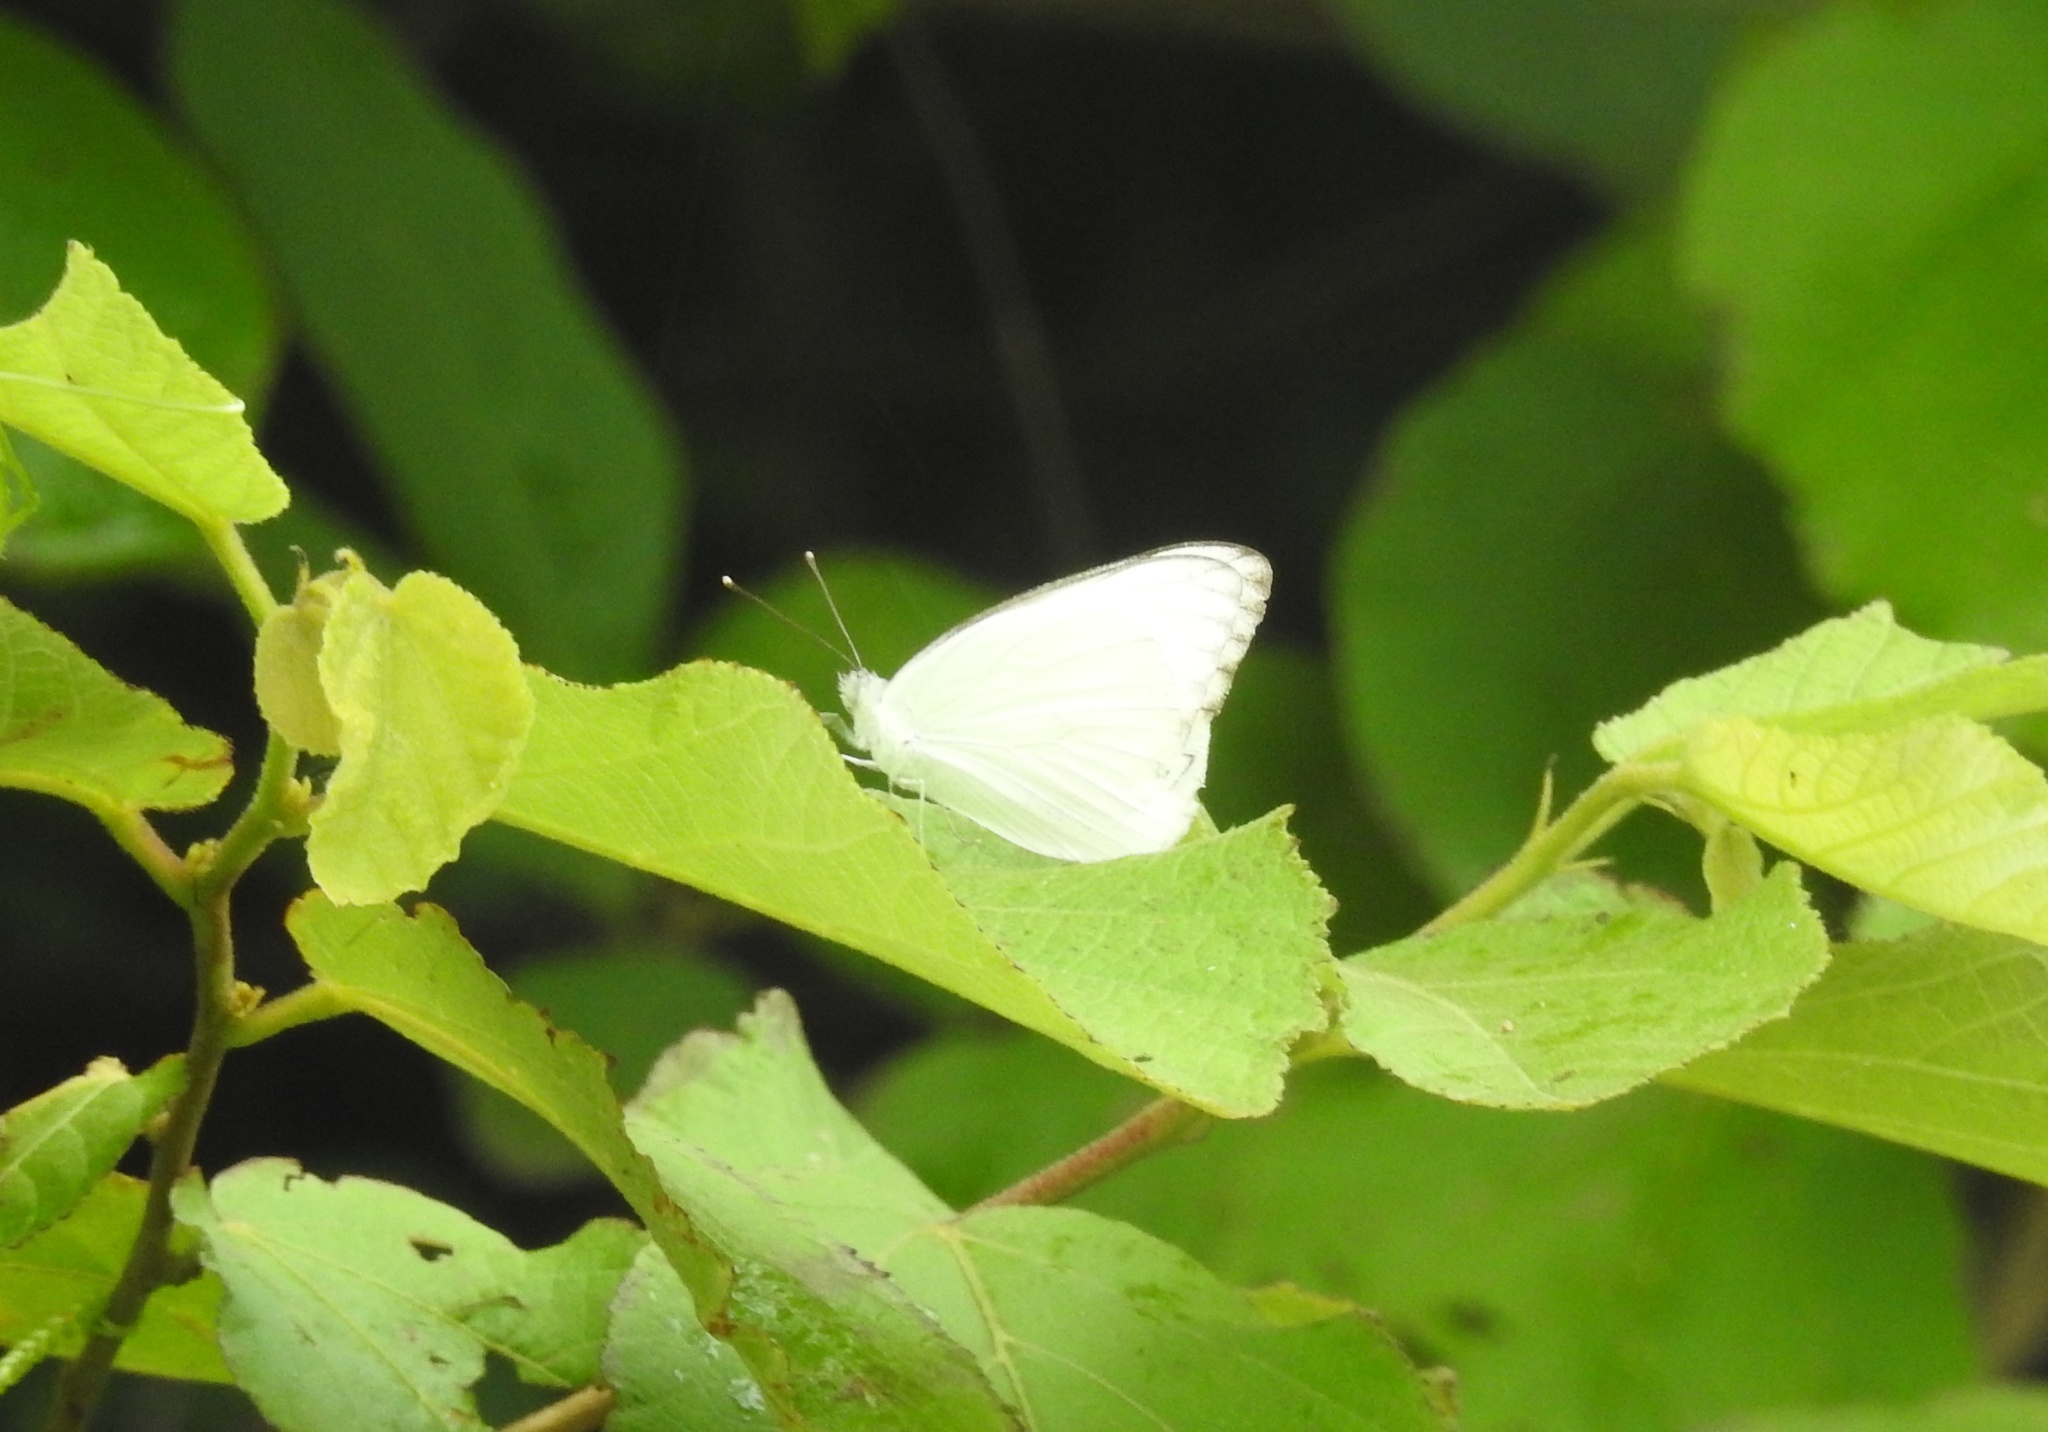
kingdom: Animalia
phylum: Arthropoda
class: Insecta
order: Lepidoptera
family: Pieridae
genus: Appias
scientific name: Appias albina
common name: Common albatross
